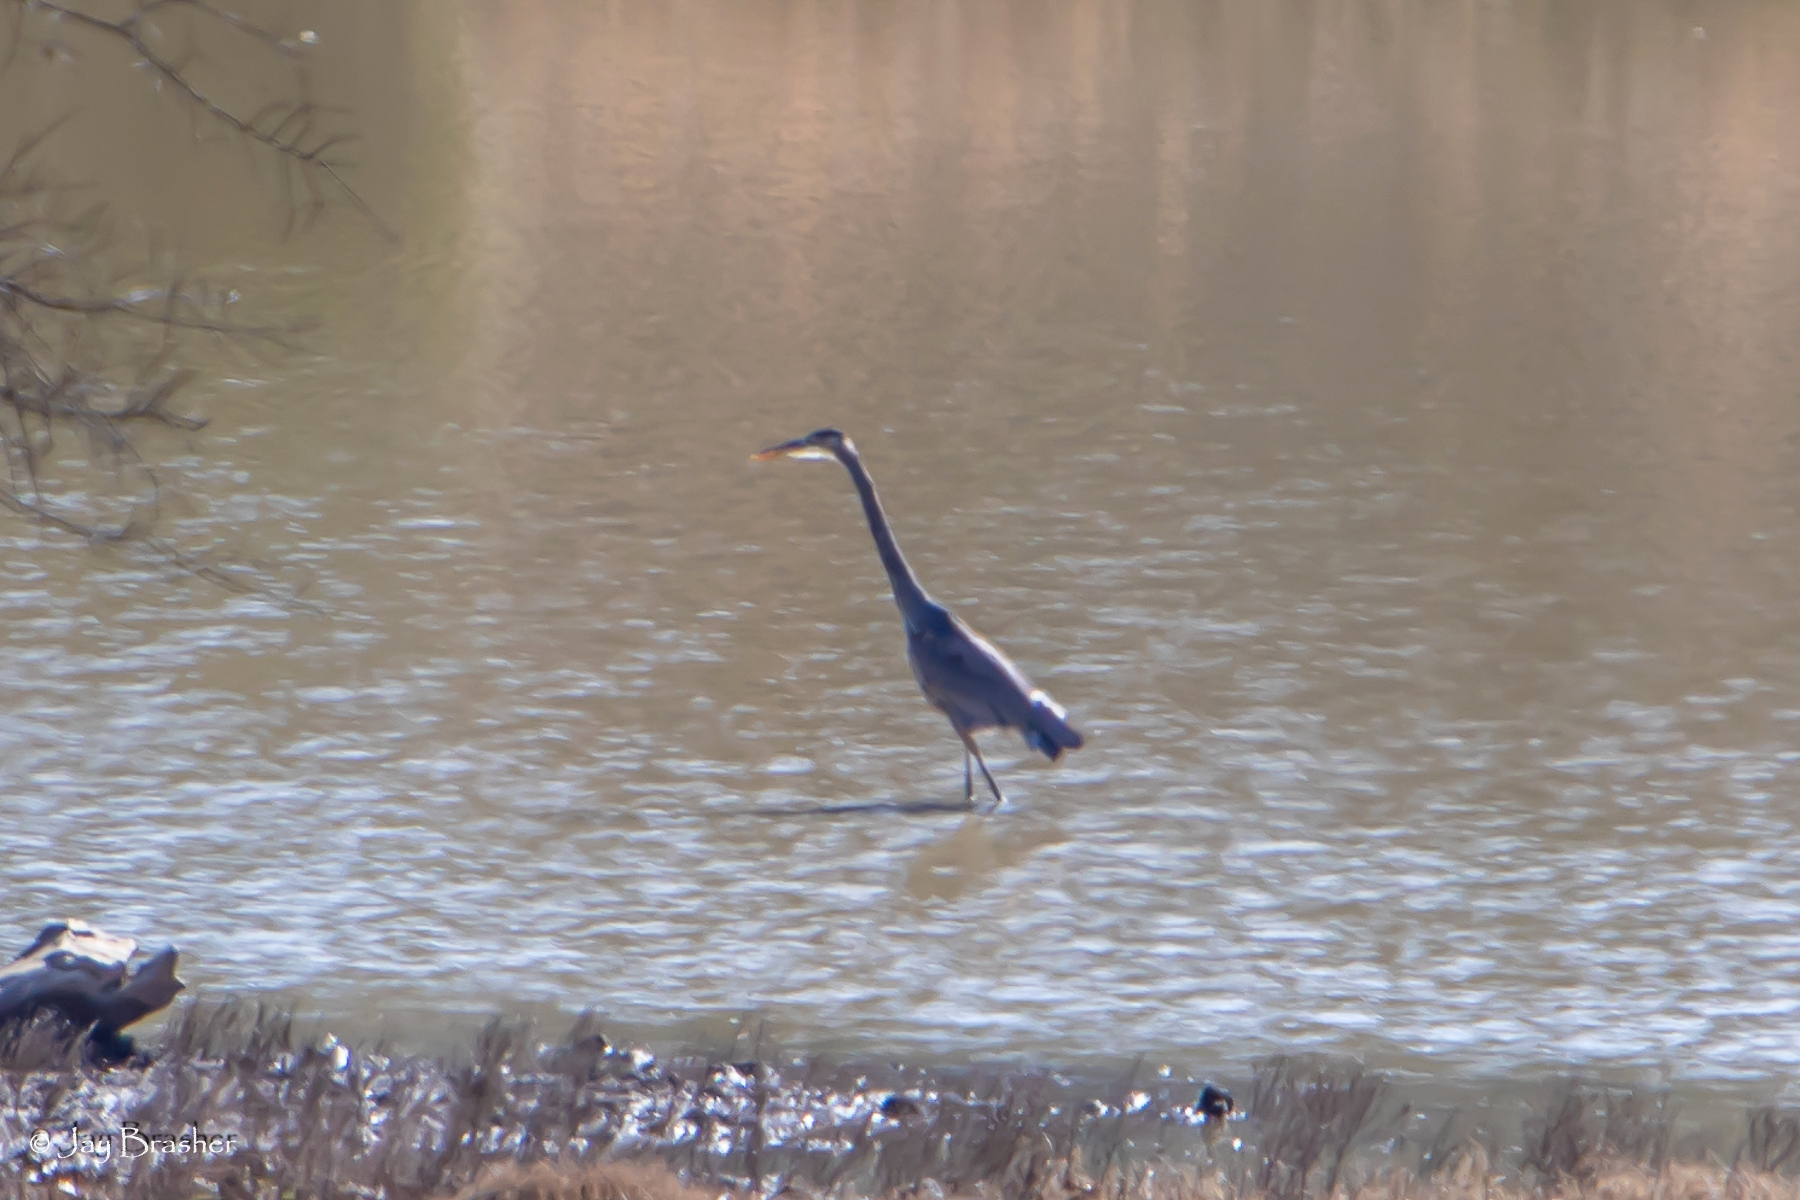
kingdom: Animalia
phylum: Chordata
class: Aves
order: Pelecaniformes
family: Ardeidae
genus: Ardea
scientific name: Ardea herodias
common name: Great blue heron
